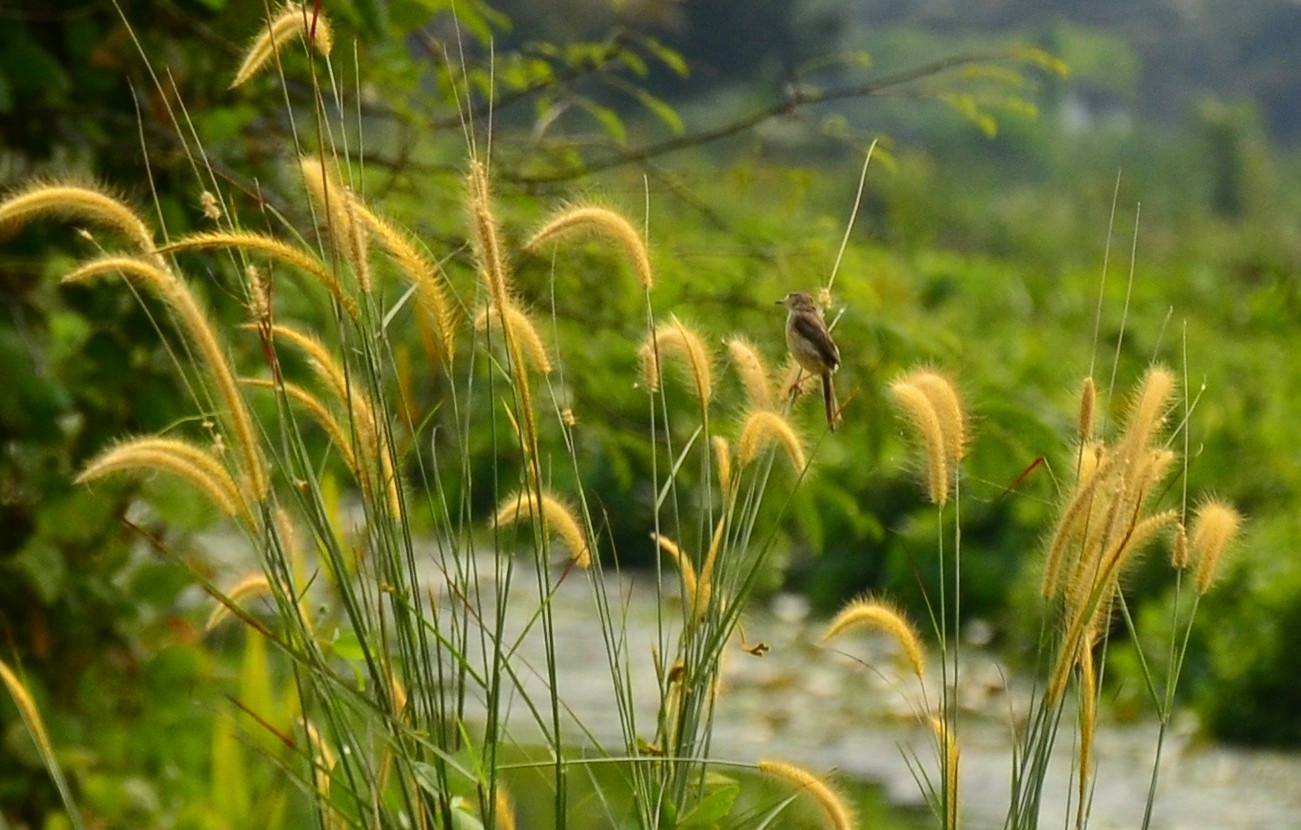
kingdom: Animalia
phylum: Chordata
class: Aves
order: Passeriformes
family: Cisticolidae
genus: Prinia
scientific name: Prinia inornata
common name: Plain prinia
